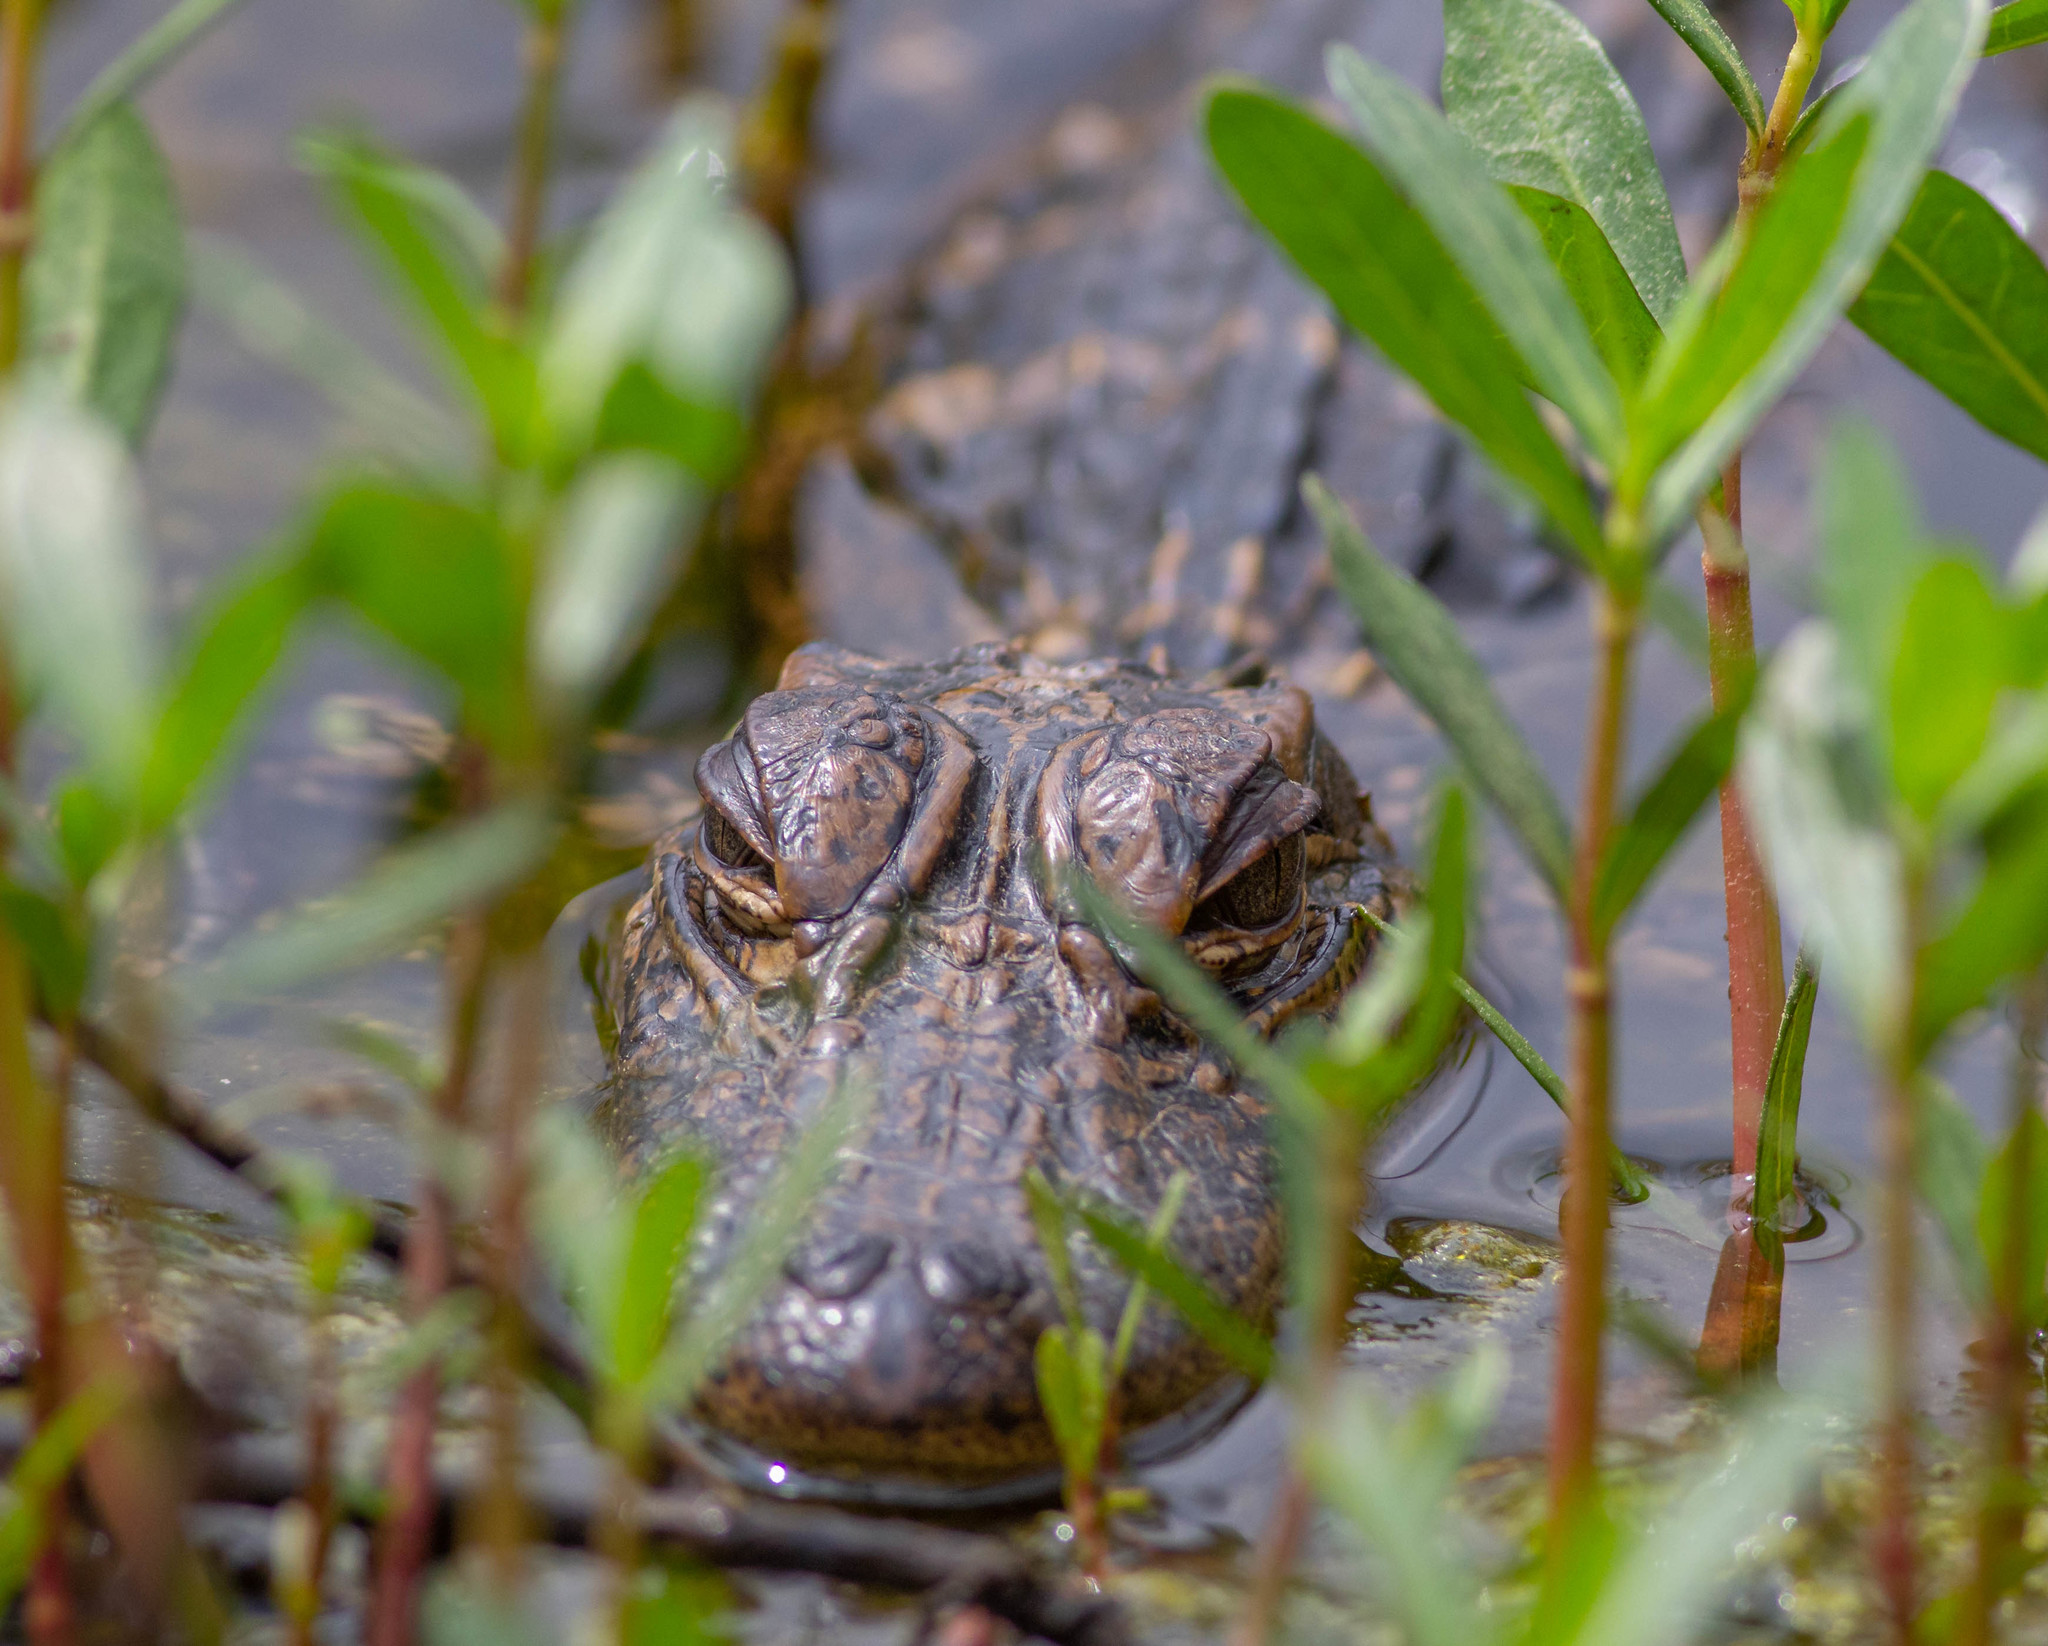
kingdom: Animalia
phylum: Chordata
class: Crocodylia
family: Alligatoridae
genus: Alligator
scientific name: Alligator mississippiensis
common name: American alligator
